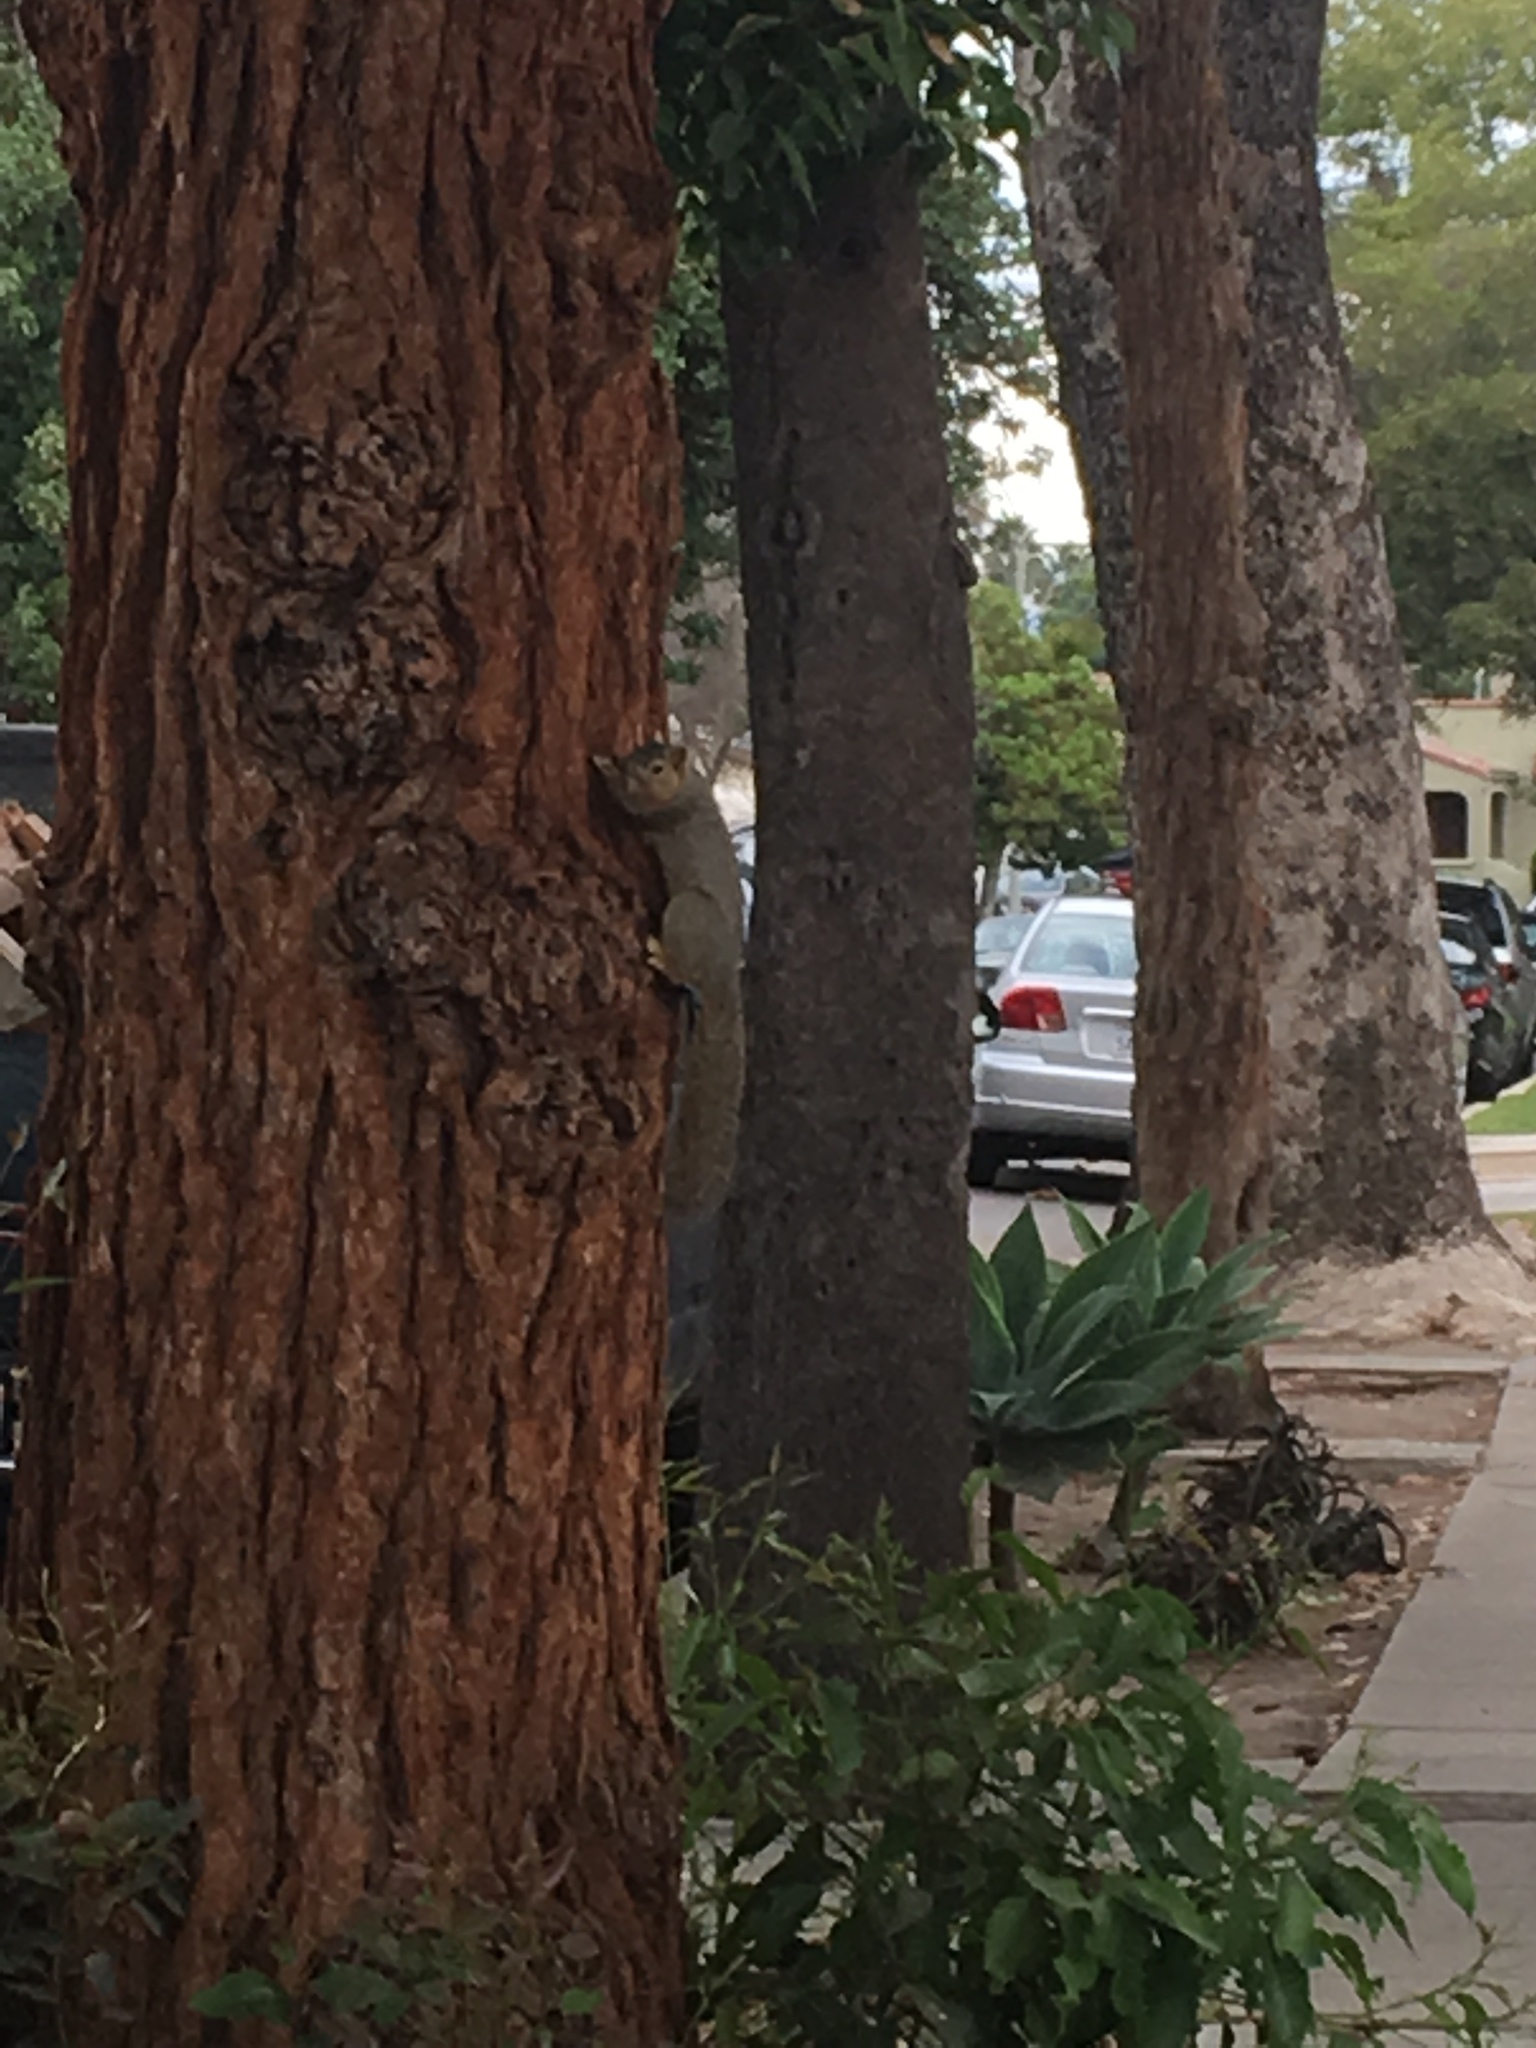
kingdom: Animalia
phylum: Chordata
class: Mammalia
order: Rodentia
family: Sciuridae
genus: Sciurus
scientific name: Sciurus niger
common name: Fox squirrel
